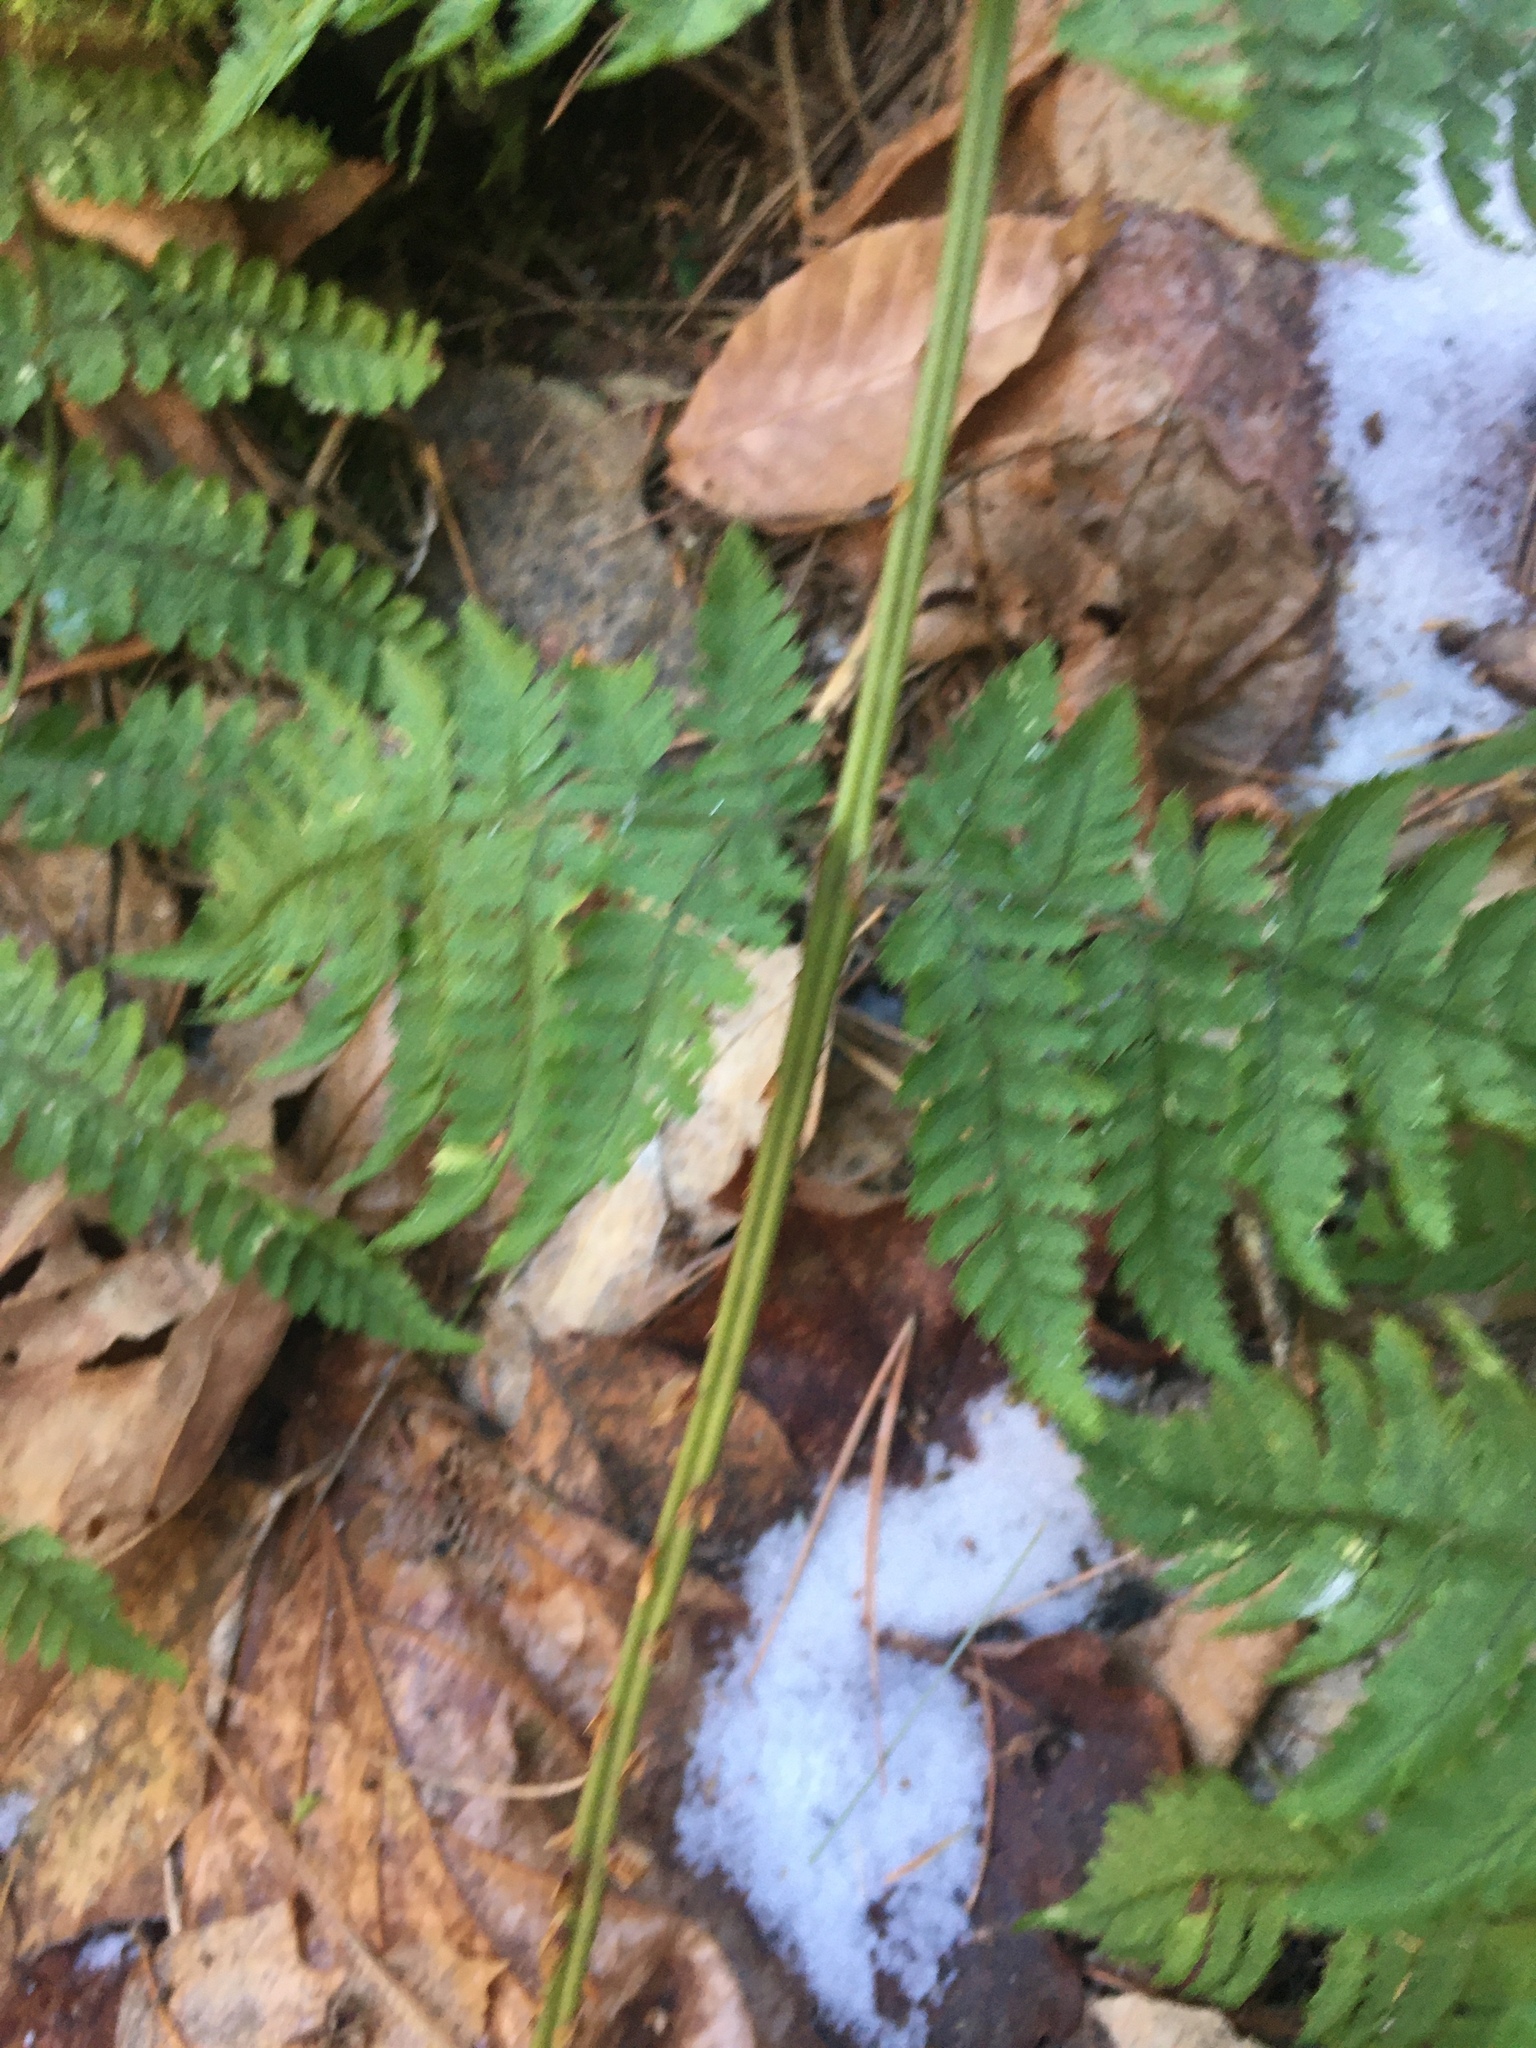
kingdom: Plantae
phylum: Tracheophyta
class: Polypodiopsida
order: Polypodiales
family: Dryopteridaceae
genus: Dryopteris
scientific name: Dryopteris intermedia
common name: Evergreen wood fern
